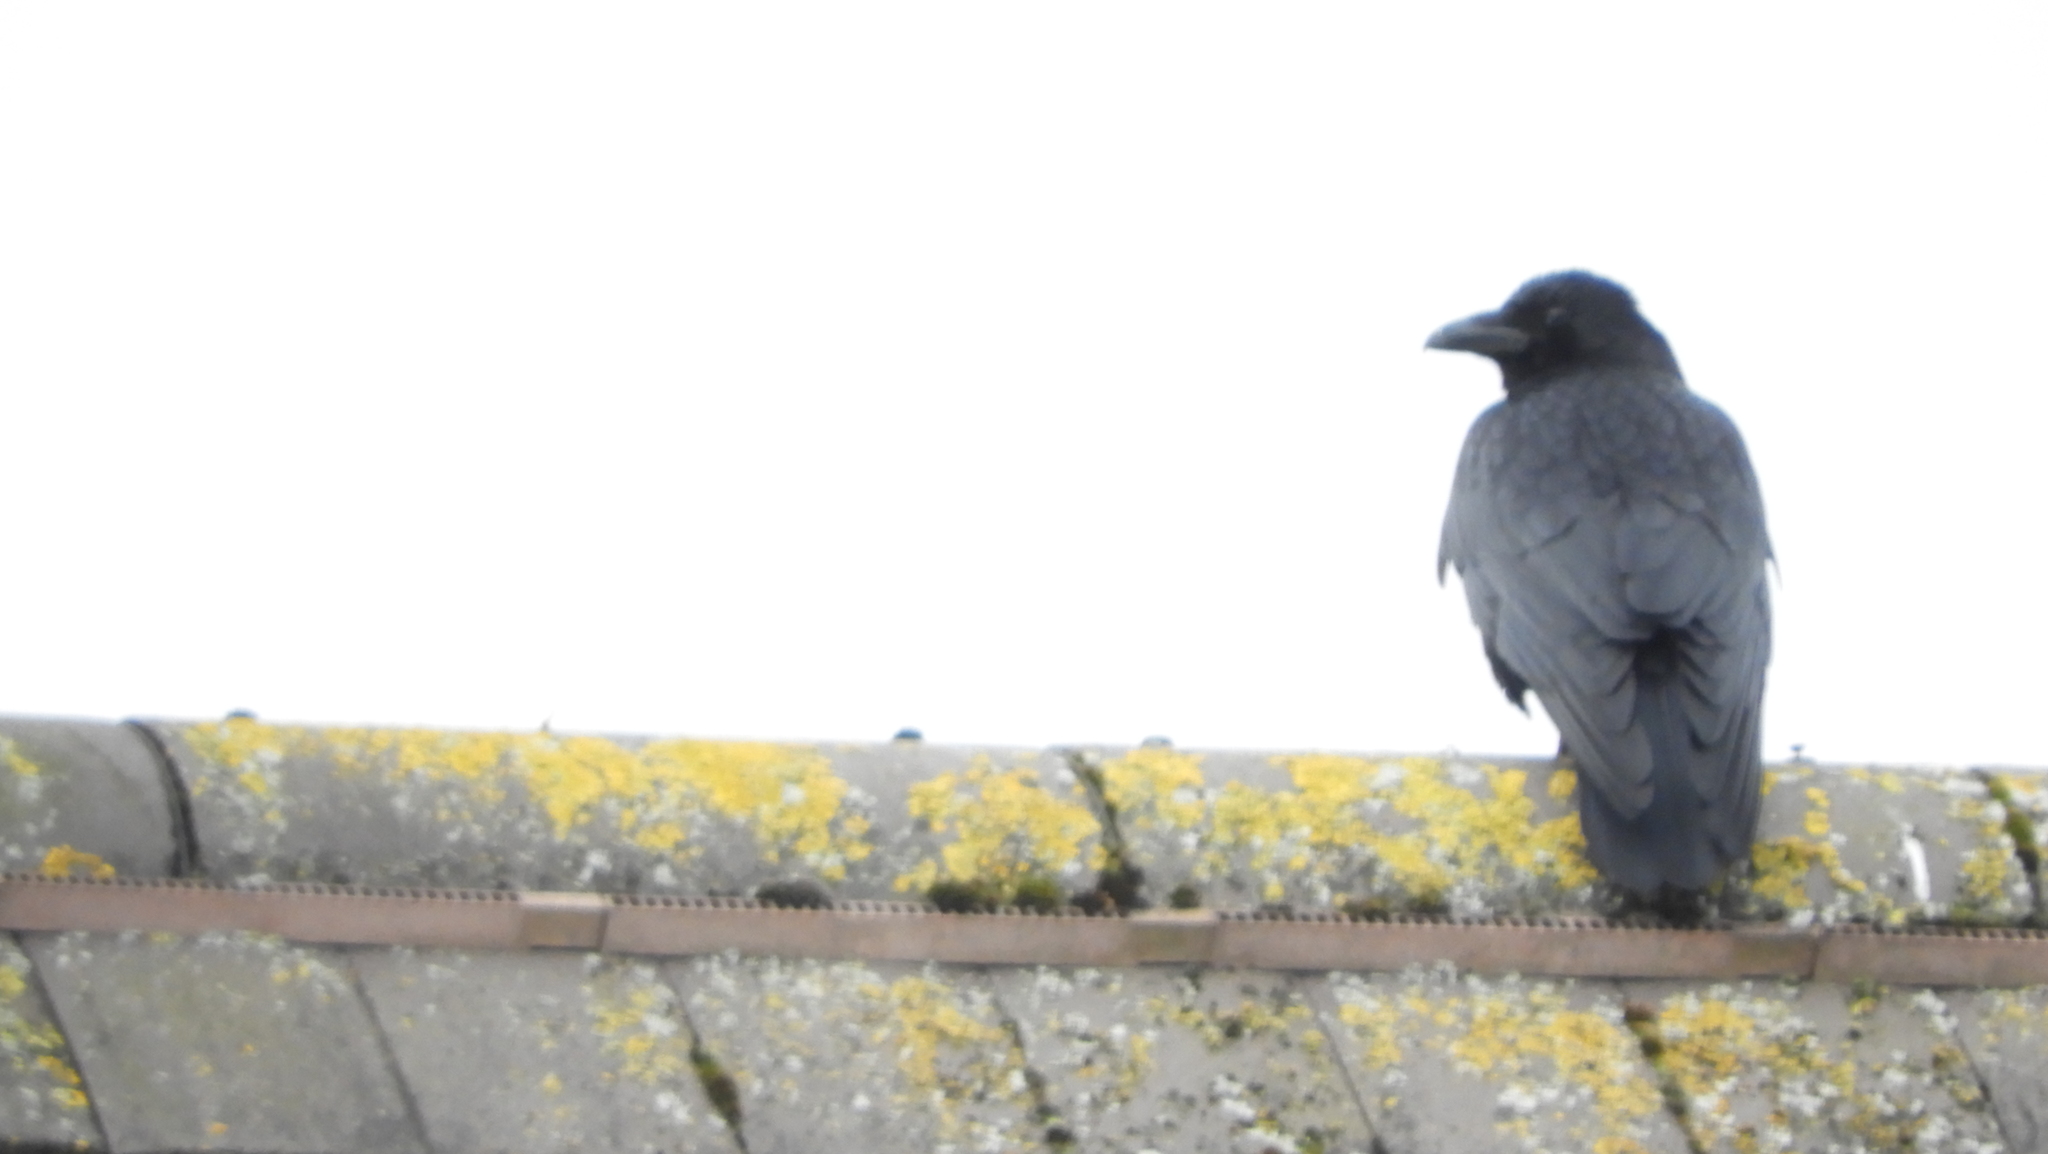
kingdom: Animalia
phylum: Chordata
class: Aves
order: Passeriformes
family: Corvidae
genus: Corvus
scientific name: Corvus corone
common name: Carrion crow
